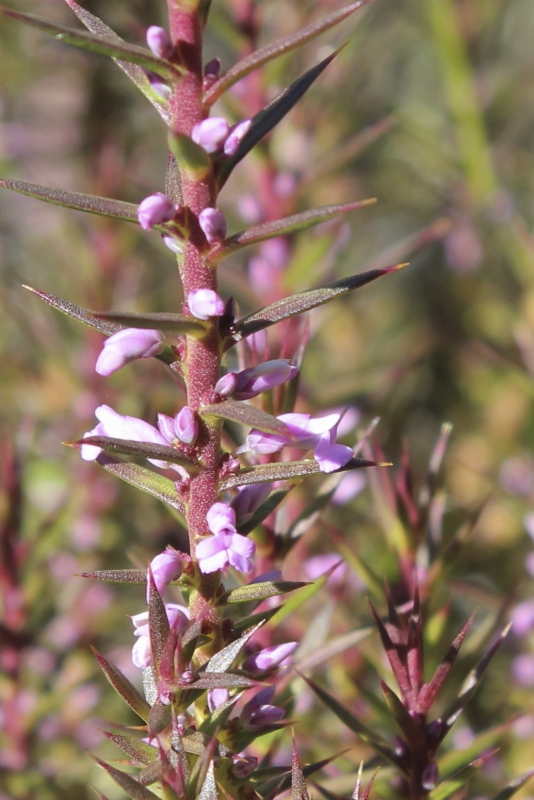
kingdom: Plantae
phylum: Tracheophyta
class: Magnoliopsida
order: Fabales
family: Polygalaceae
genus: Muraltia
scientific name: Muraltia juniperifolia
